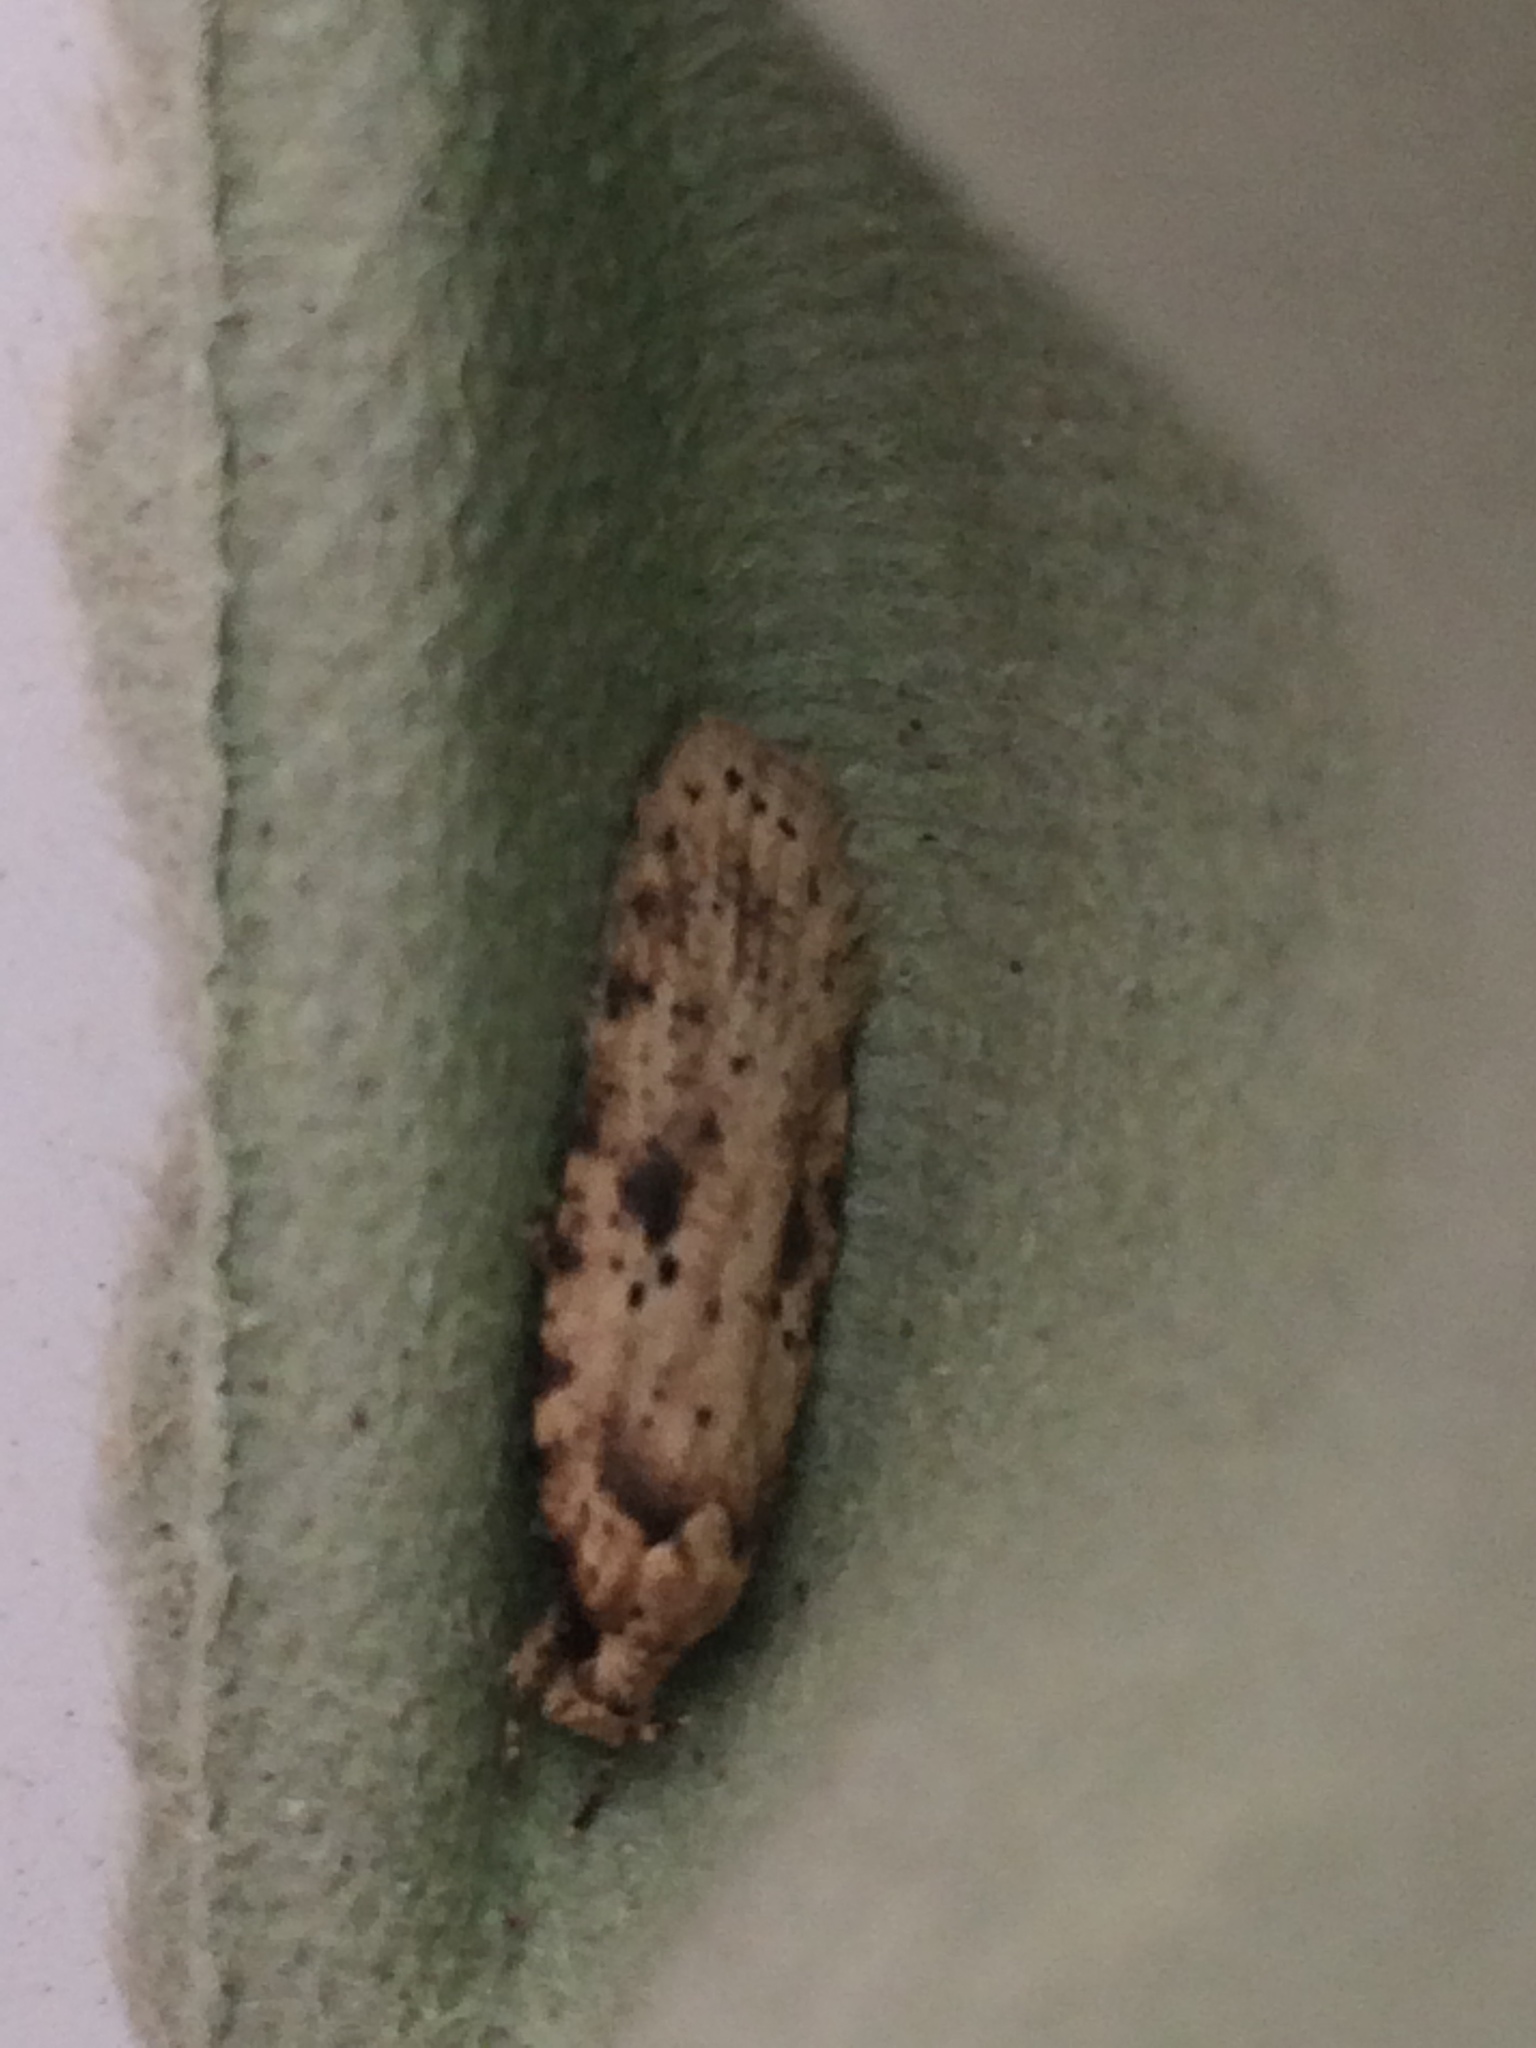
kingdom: Animalia
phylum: Arthropoda
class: Insecta
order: Lepidoptera
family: Depressariidae
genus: Agonopterix
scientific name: Agonopterix arenella
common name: Brindled flat-body
